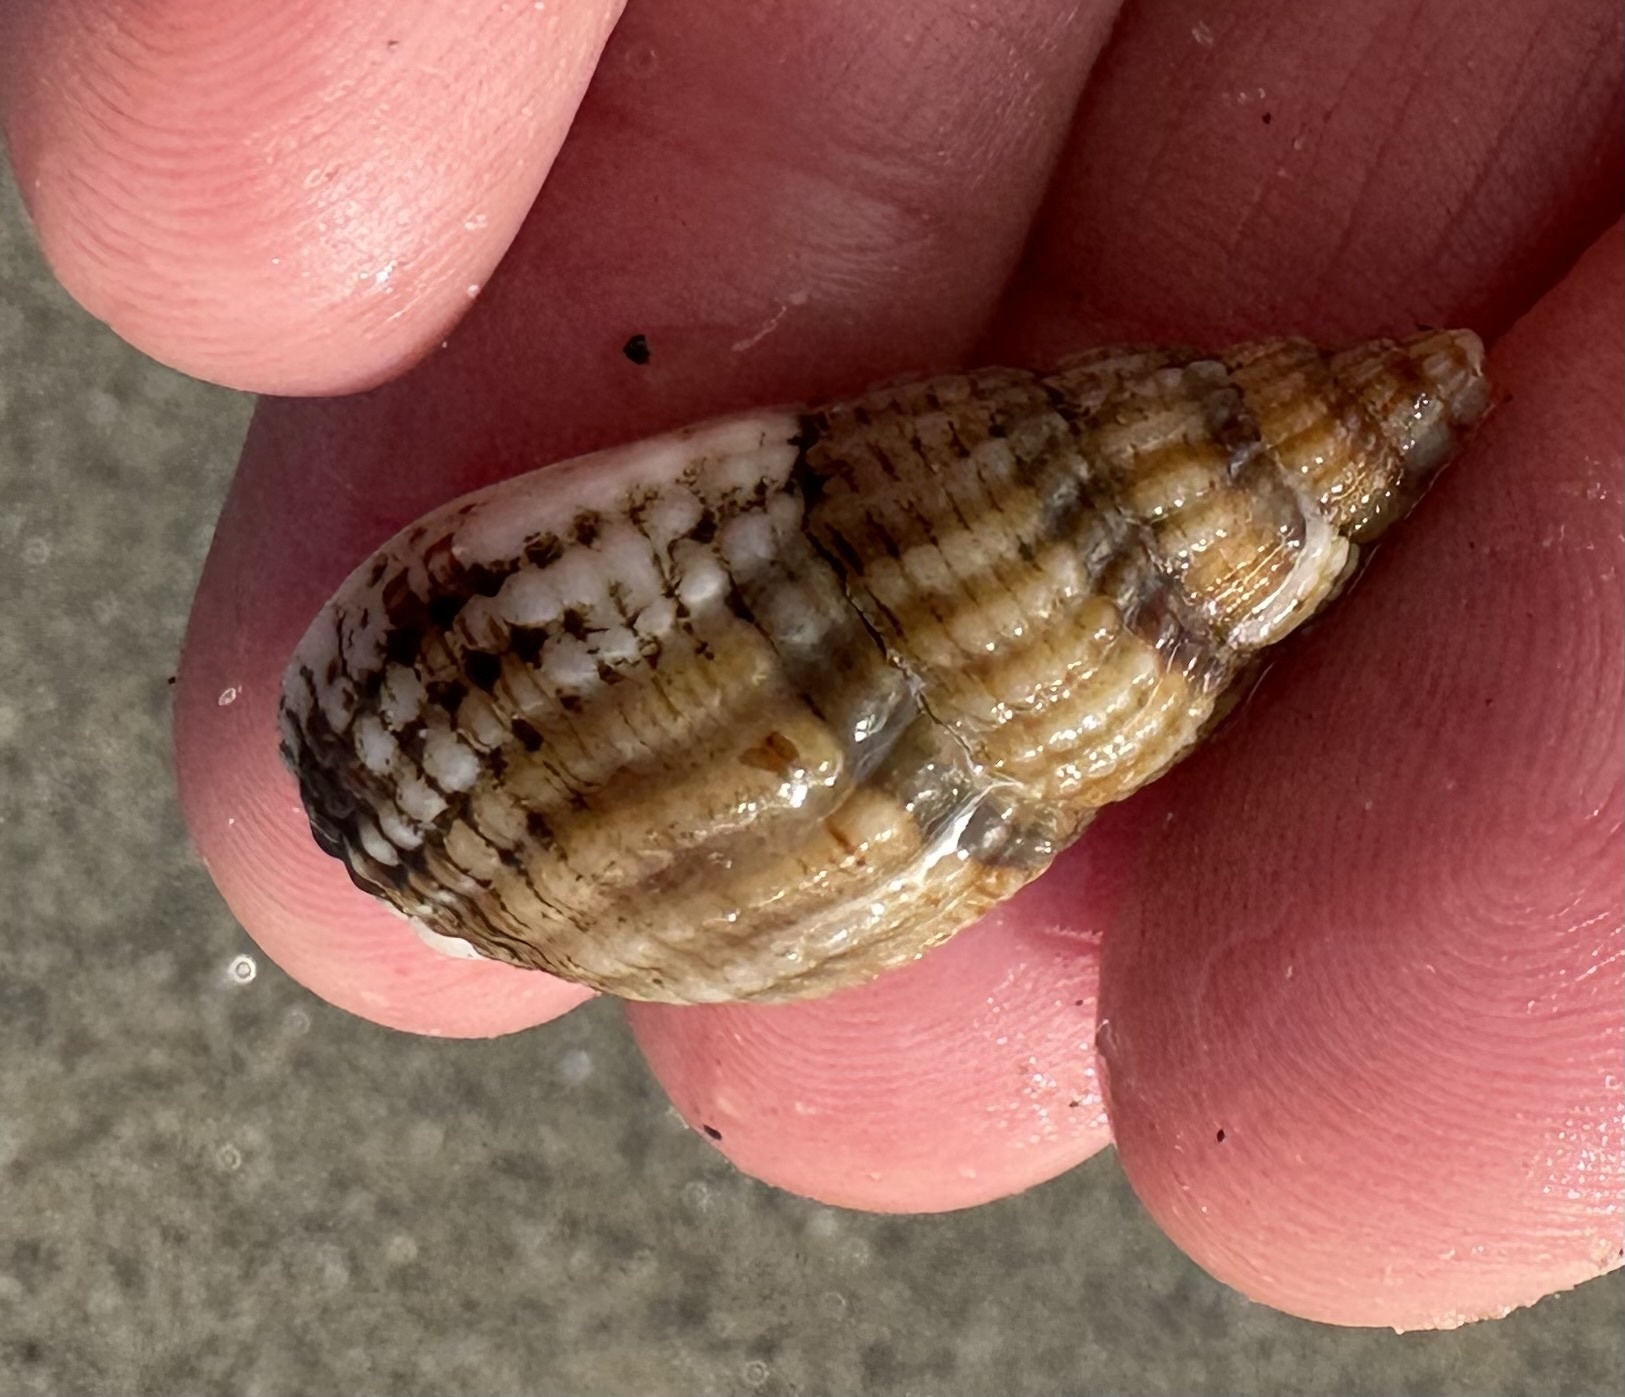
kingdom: Animalia
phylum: Mollusca
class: Gastropoda
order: Neogastropoda
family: Nassariidae
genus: Tritia
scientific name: Tritia reticulata
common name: Netted dog whelk
